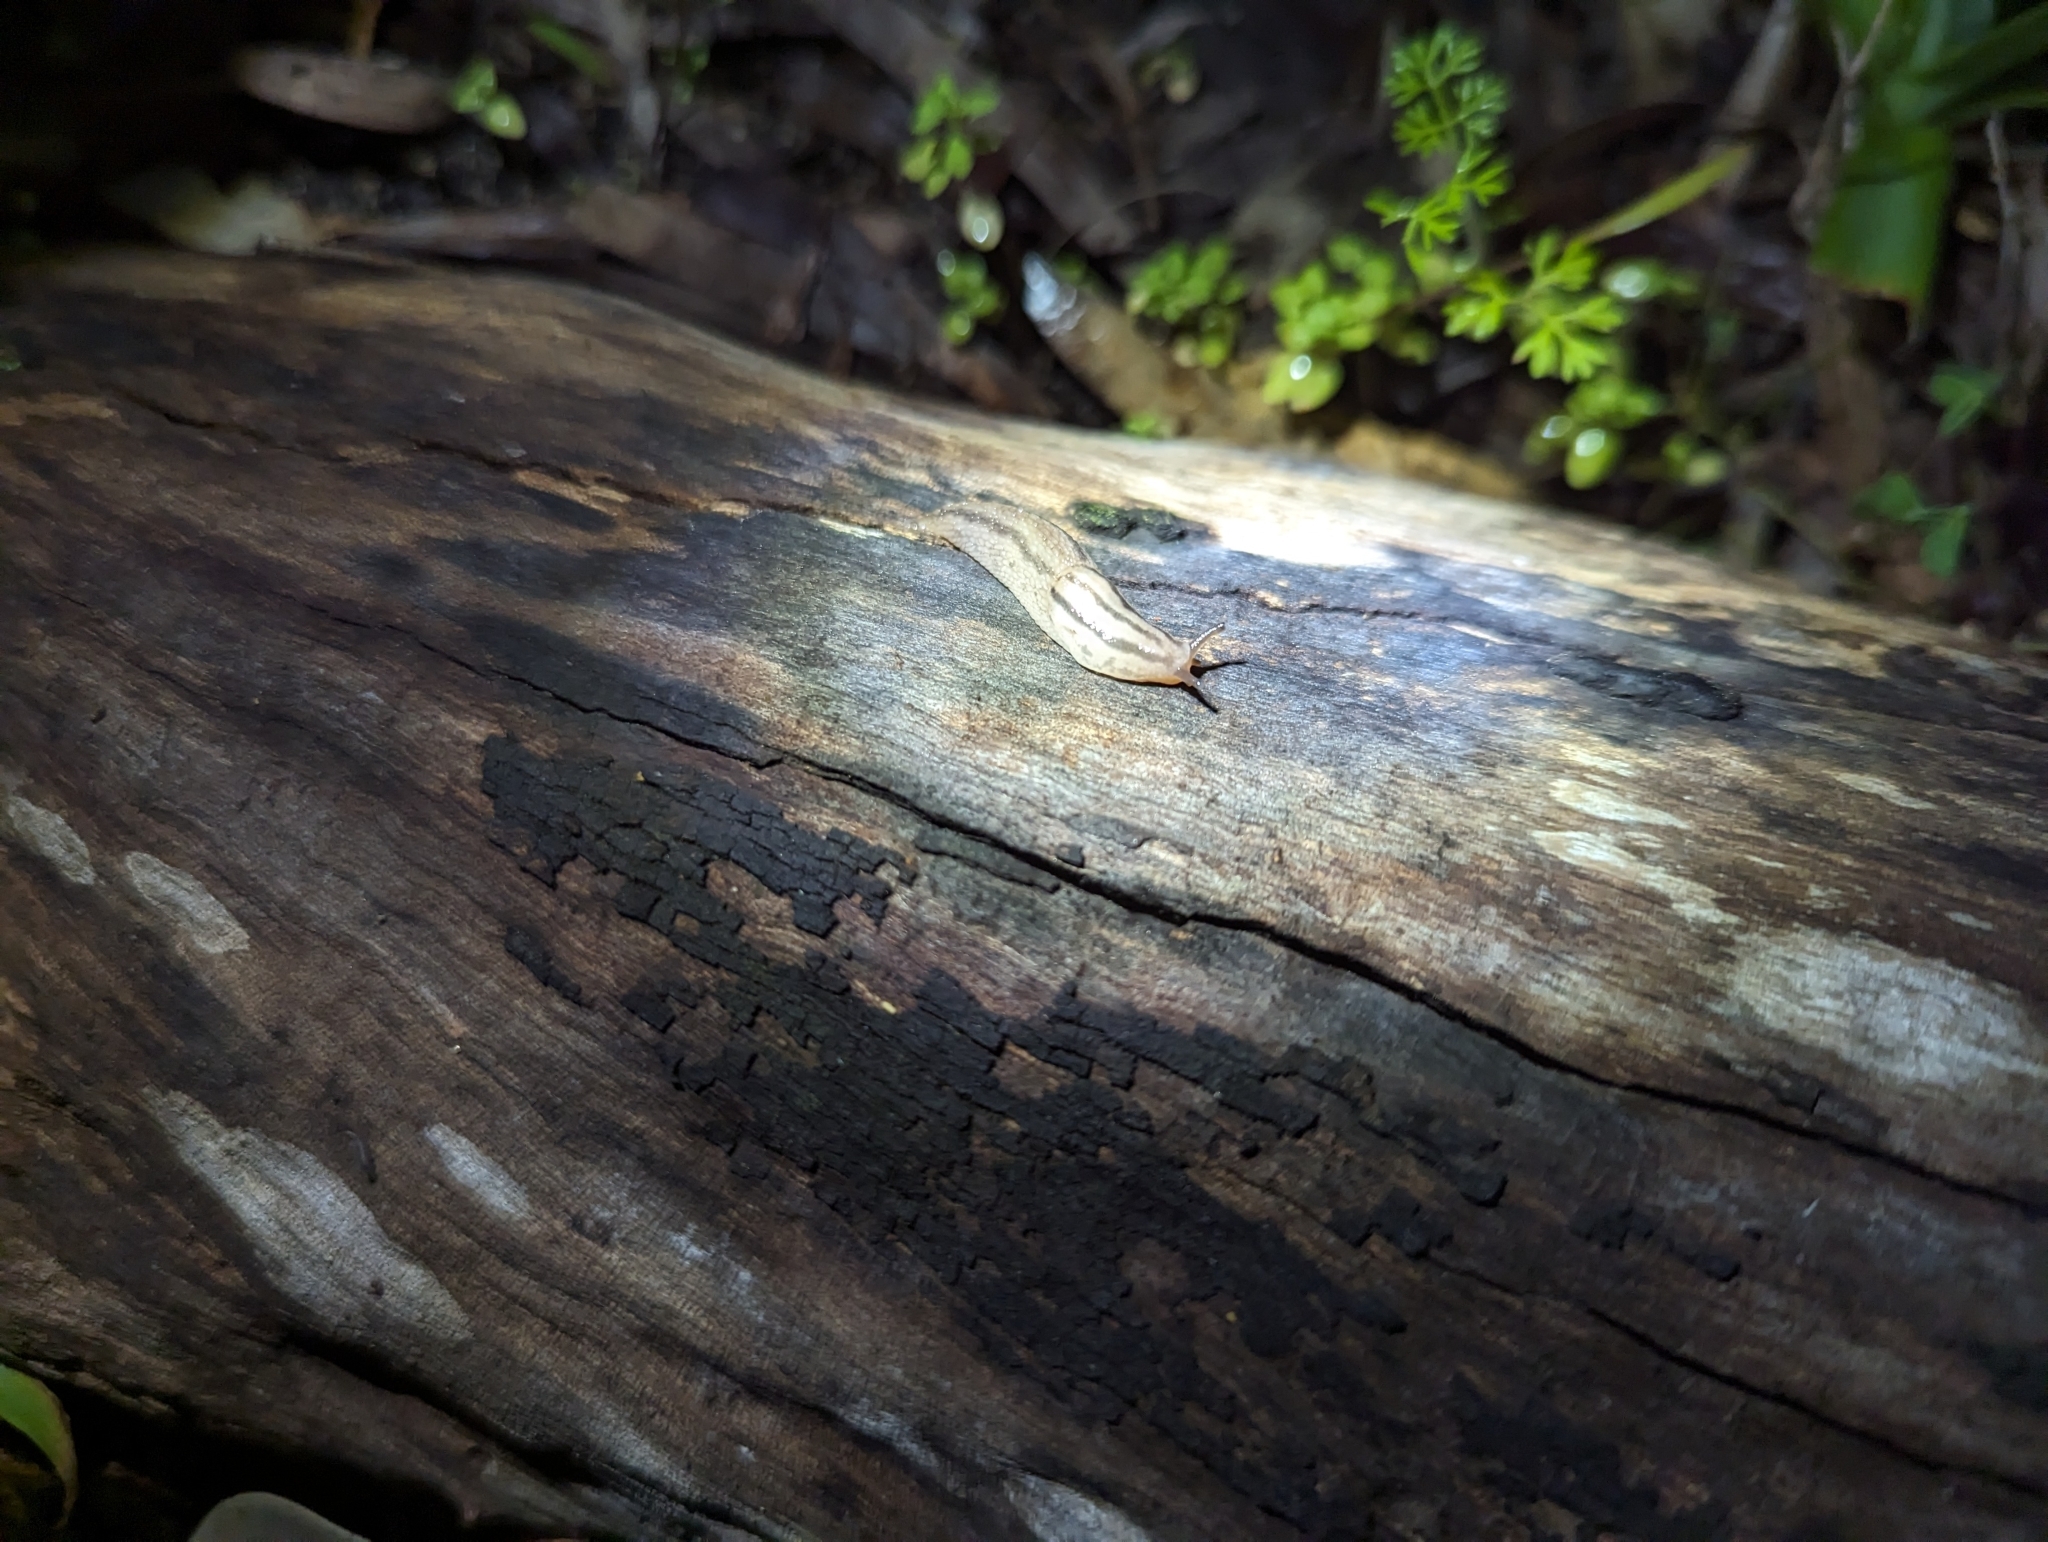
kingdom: Animalia
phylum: Mollusca
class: Gastropoda
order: Stylommatophora
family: Limacidae
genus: Ambigolimax
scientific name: Ambigolimax
